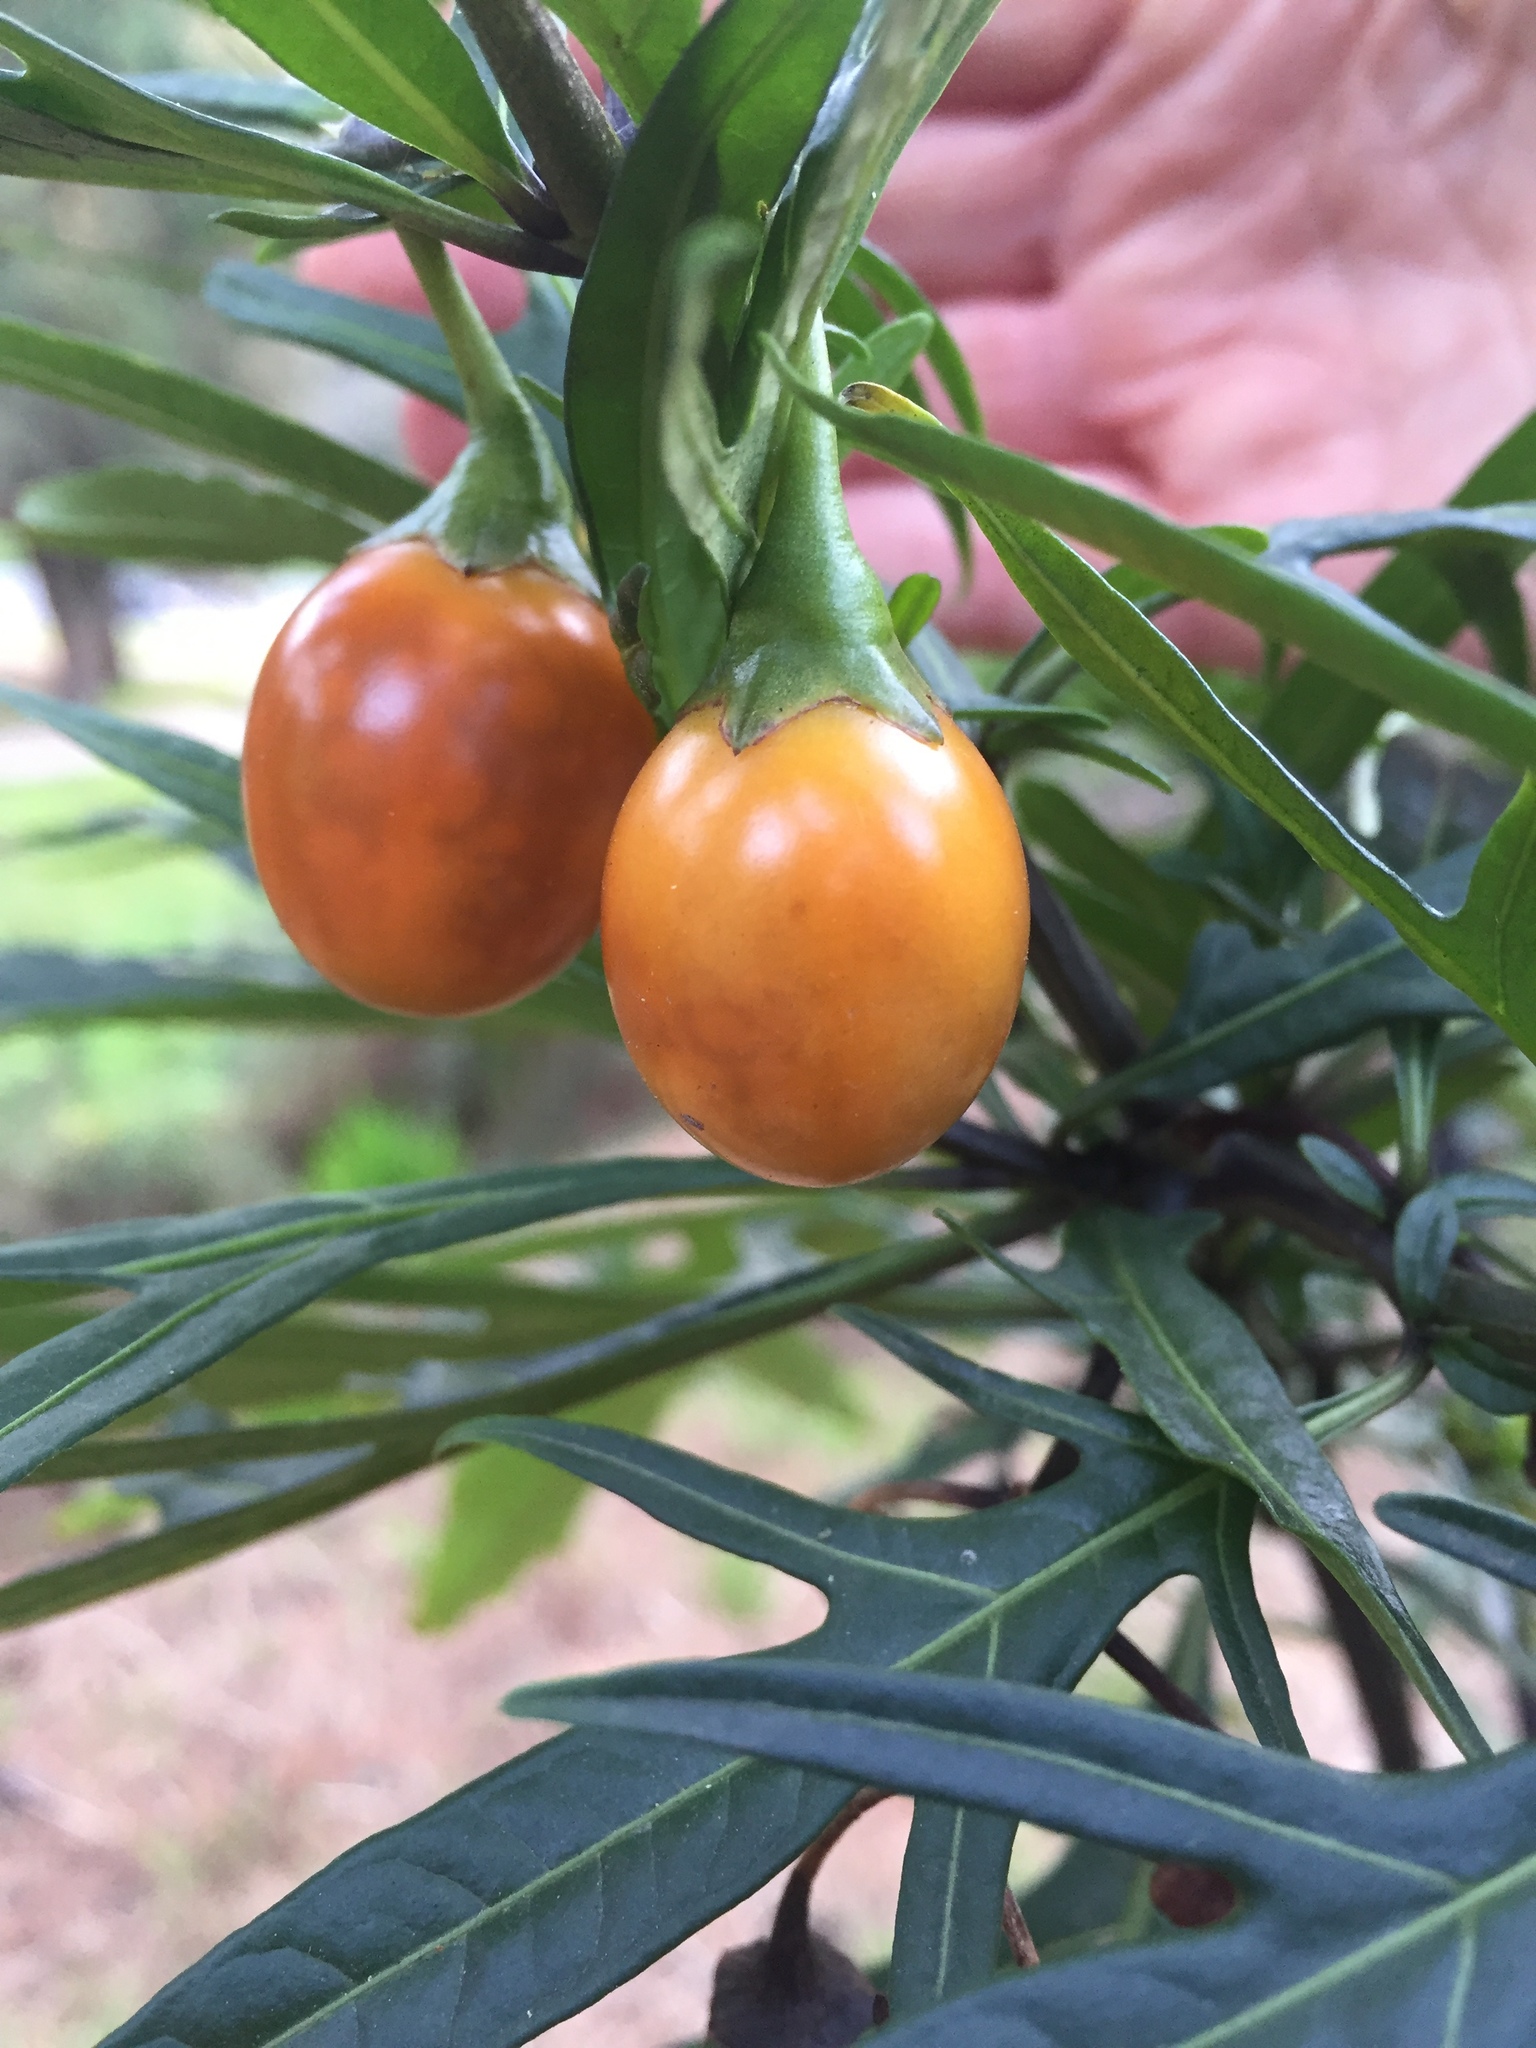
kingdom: Plantae
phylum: Tracheophyta
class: Magnoliopsida
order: Solanales
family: Solanaceae
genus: Solanum
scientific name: Solanum laciniatum
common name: Kangaroo-apple
